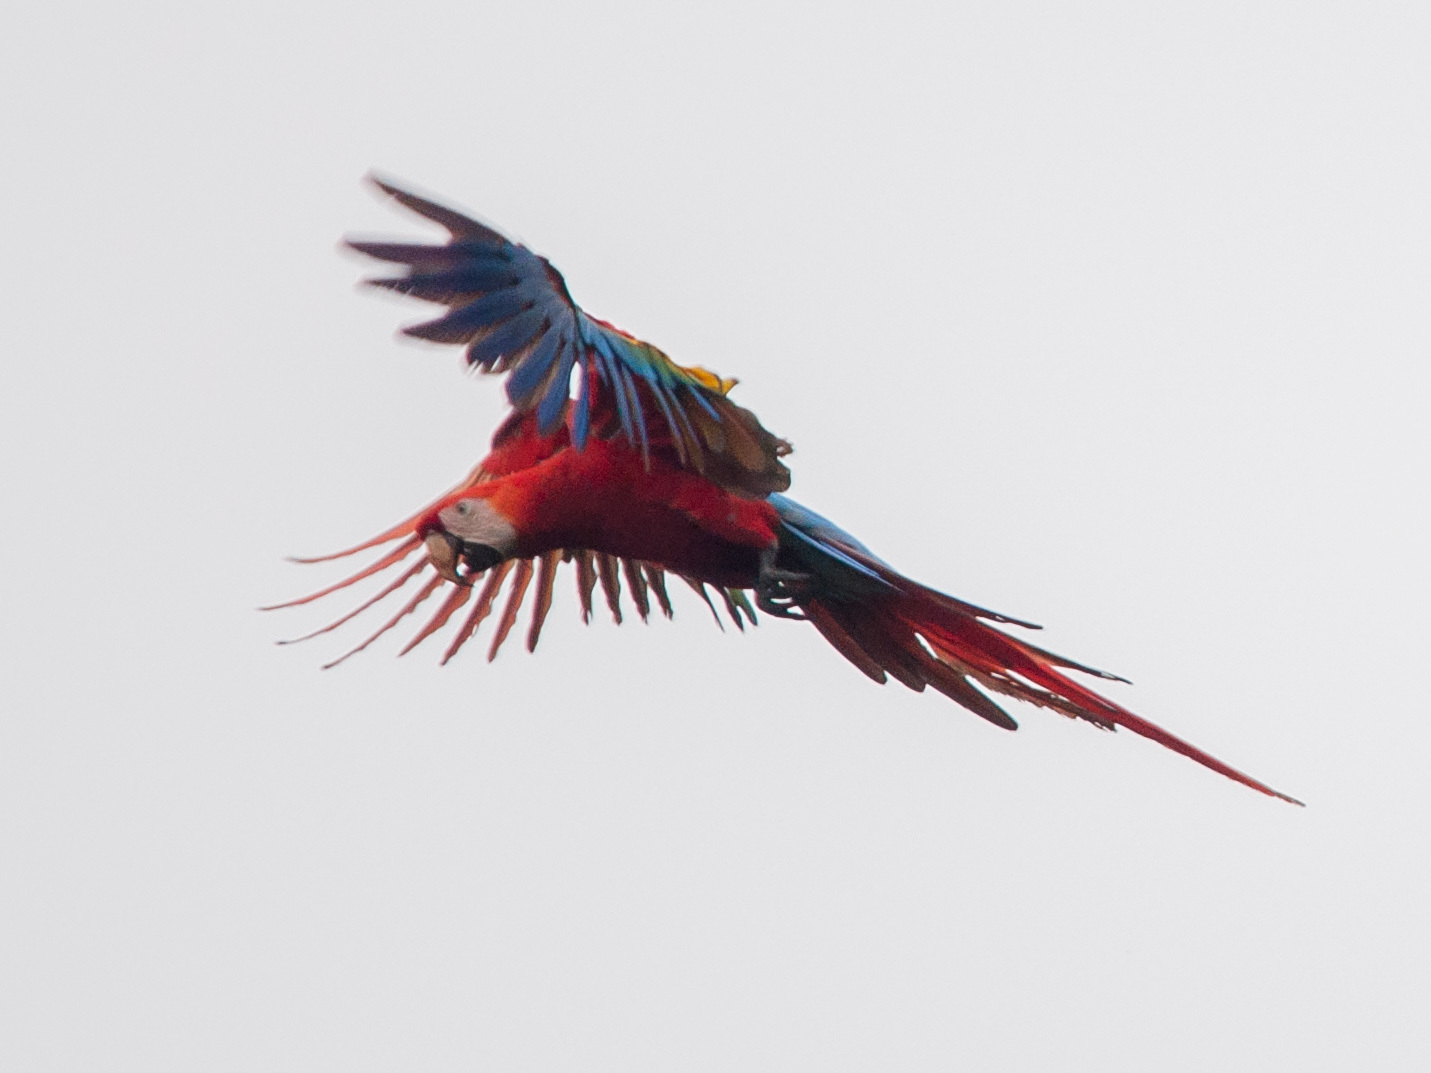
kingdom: Animalia
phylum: Chordata
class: Aves
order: Psittaciformes
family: Psittacidae
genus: Ara
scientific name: Ara macao
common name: Scarlet macaw
